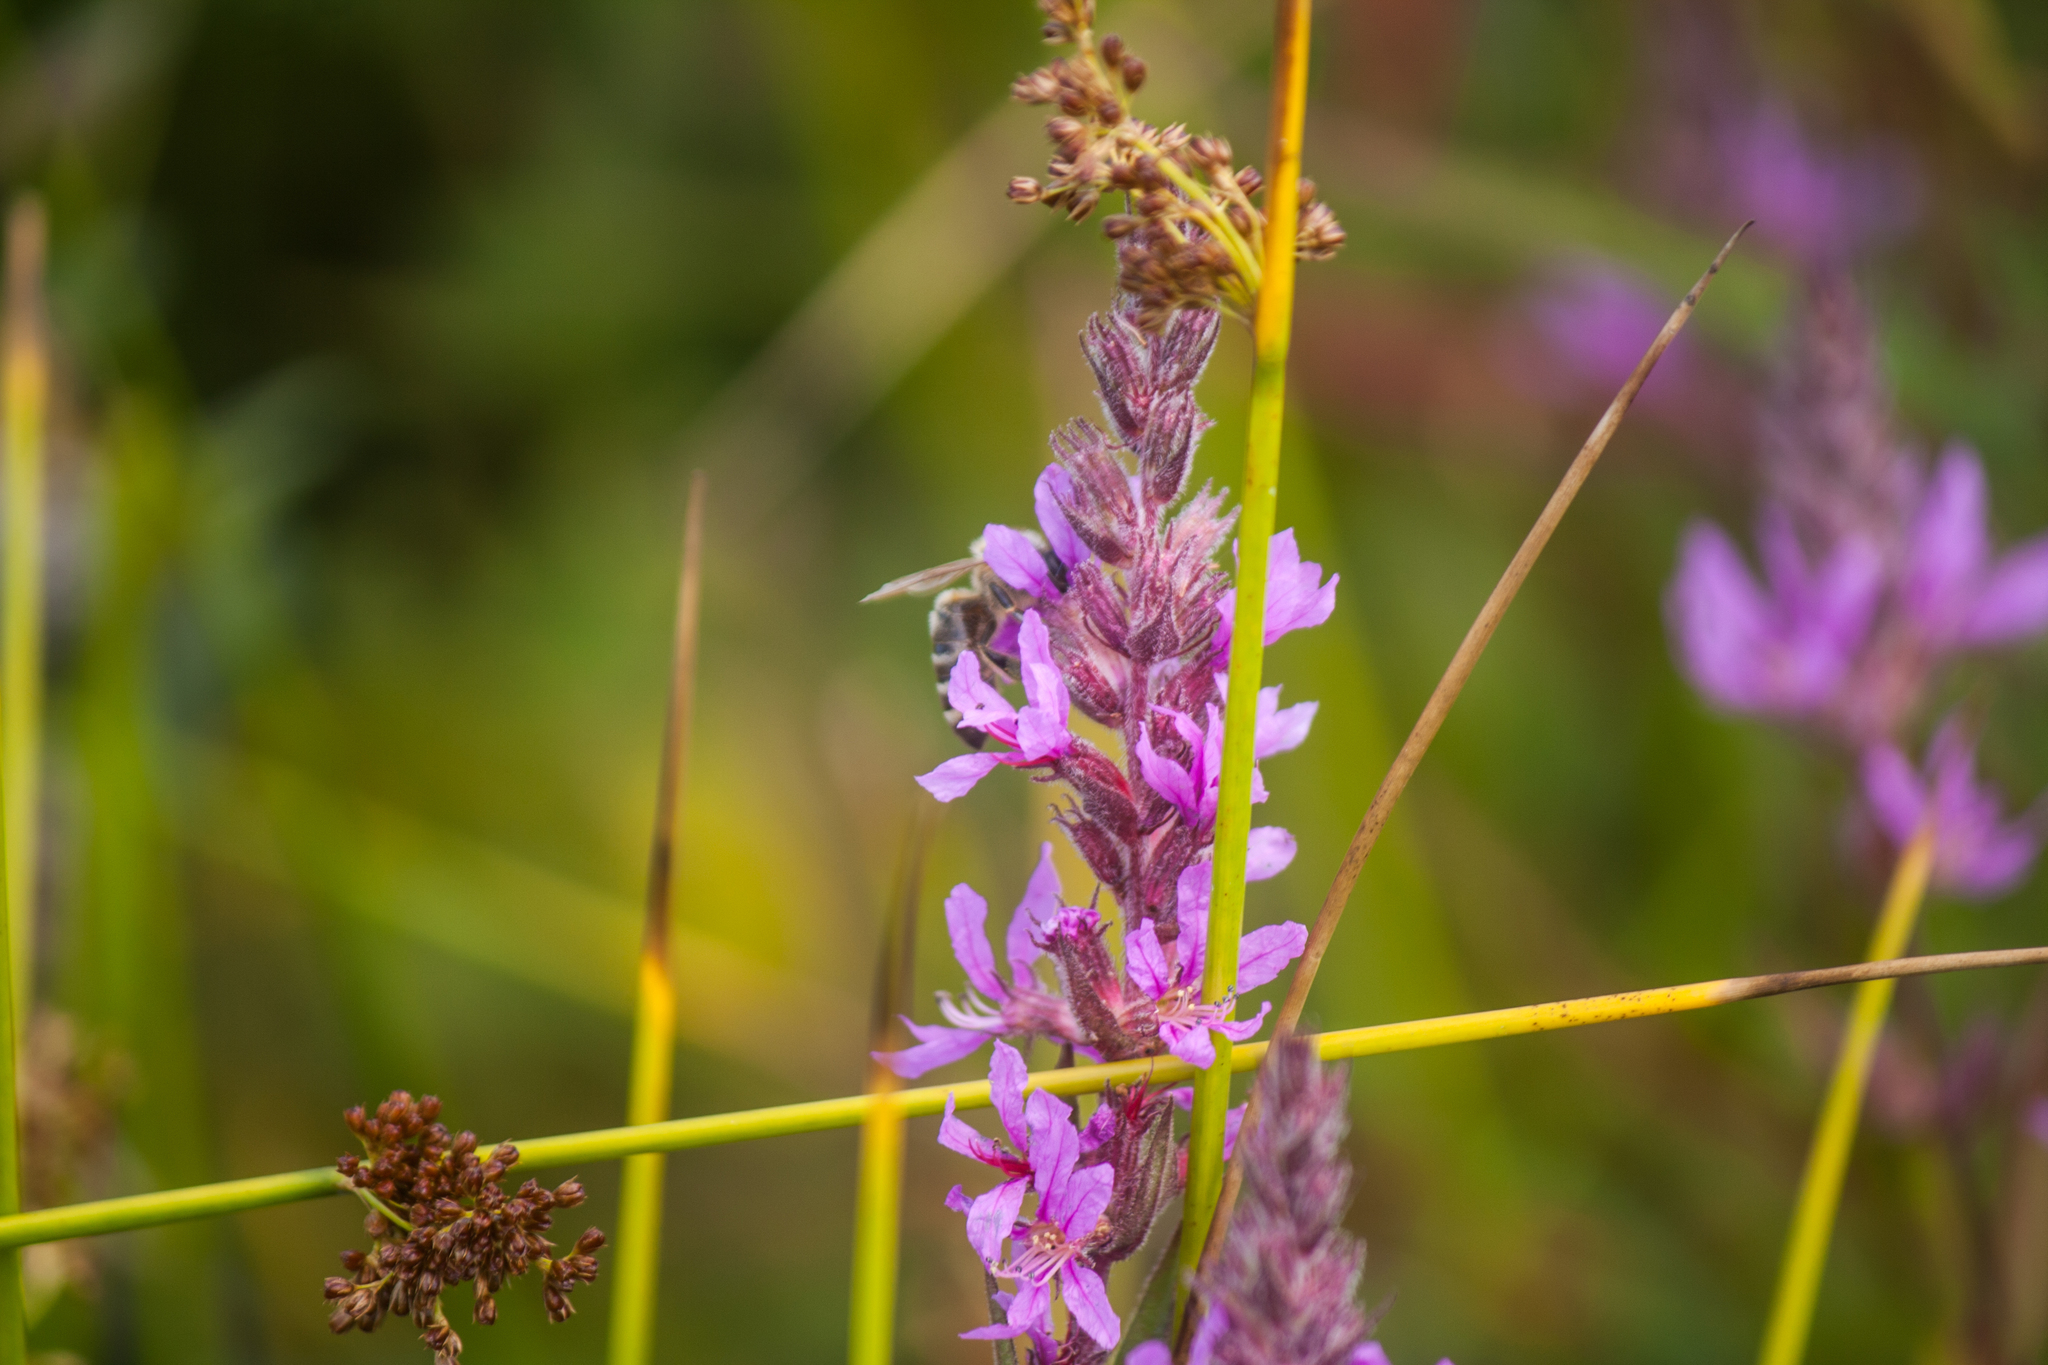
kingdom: Animalia
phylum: Arthropoda
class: Insecta
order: Hymenoptera
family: Apidae
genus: Apis
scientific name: Apis mellifera
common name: Honey bee
